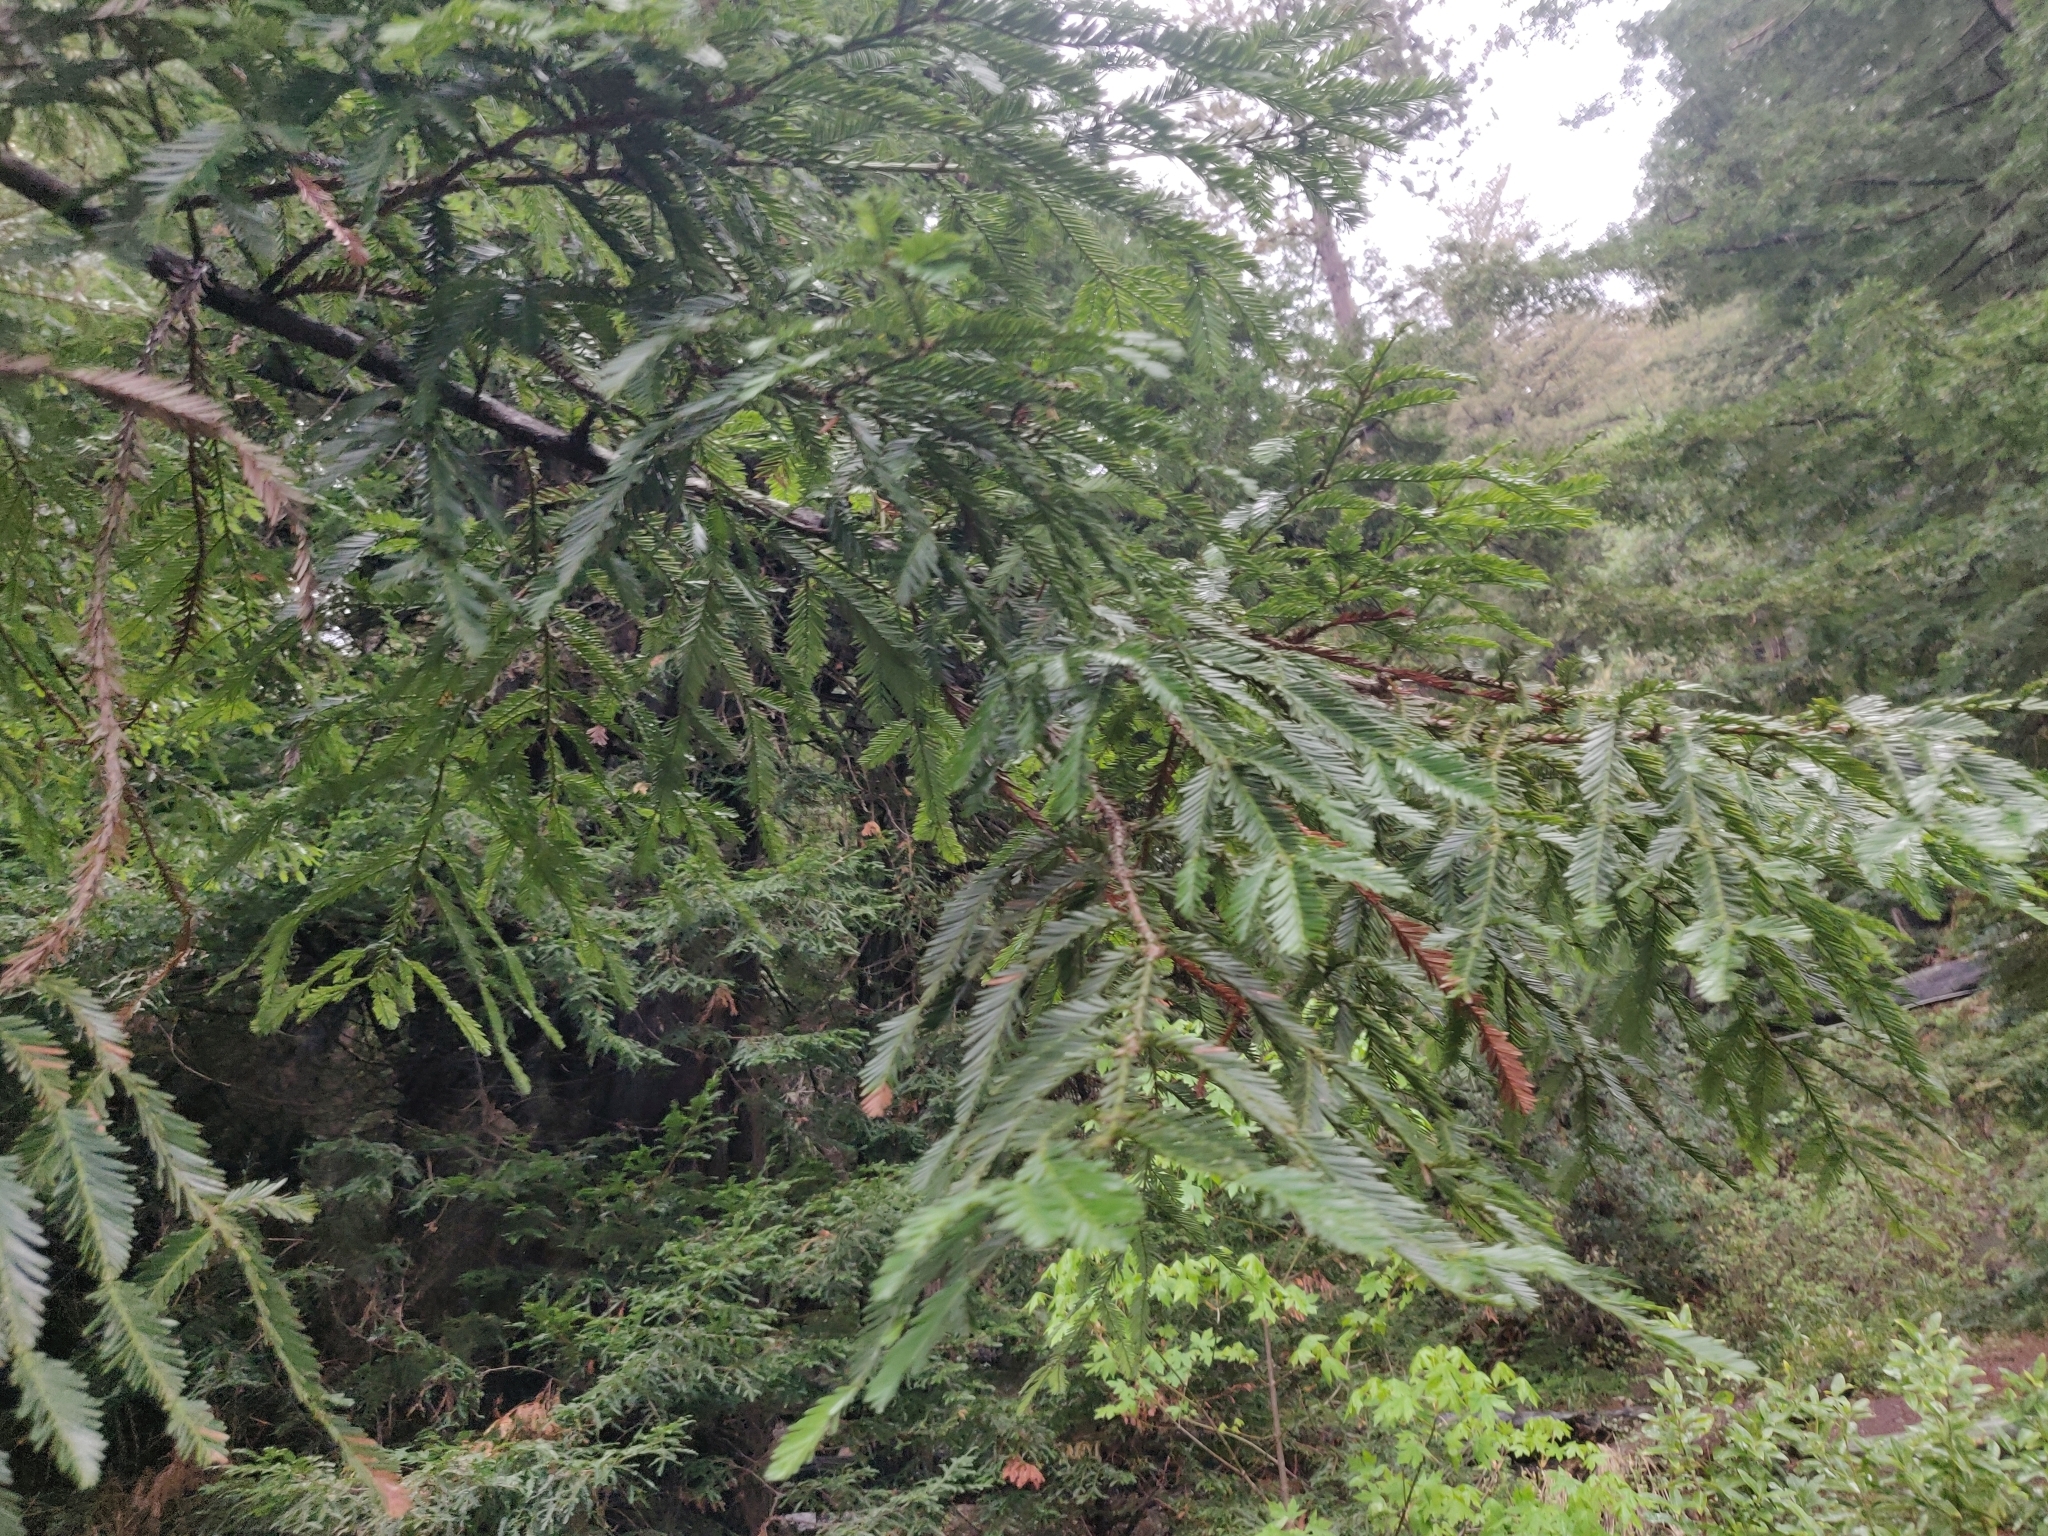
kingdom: Plantae
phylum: Tracheophyta
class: Pinopsida
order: Pinales
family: Cupressaceae
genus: Sequoia
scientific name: Sequoia sempervirens
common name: Coast redwood
